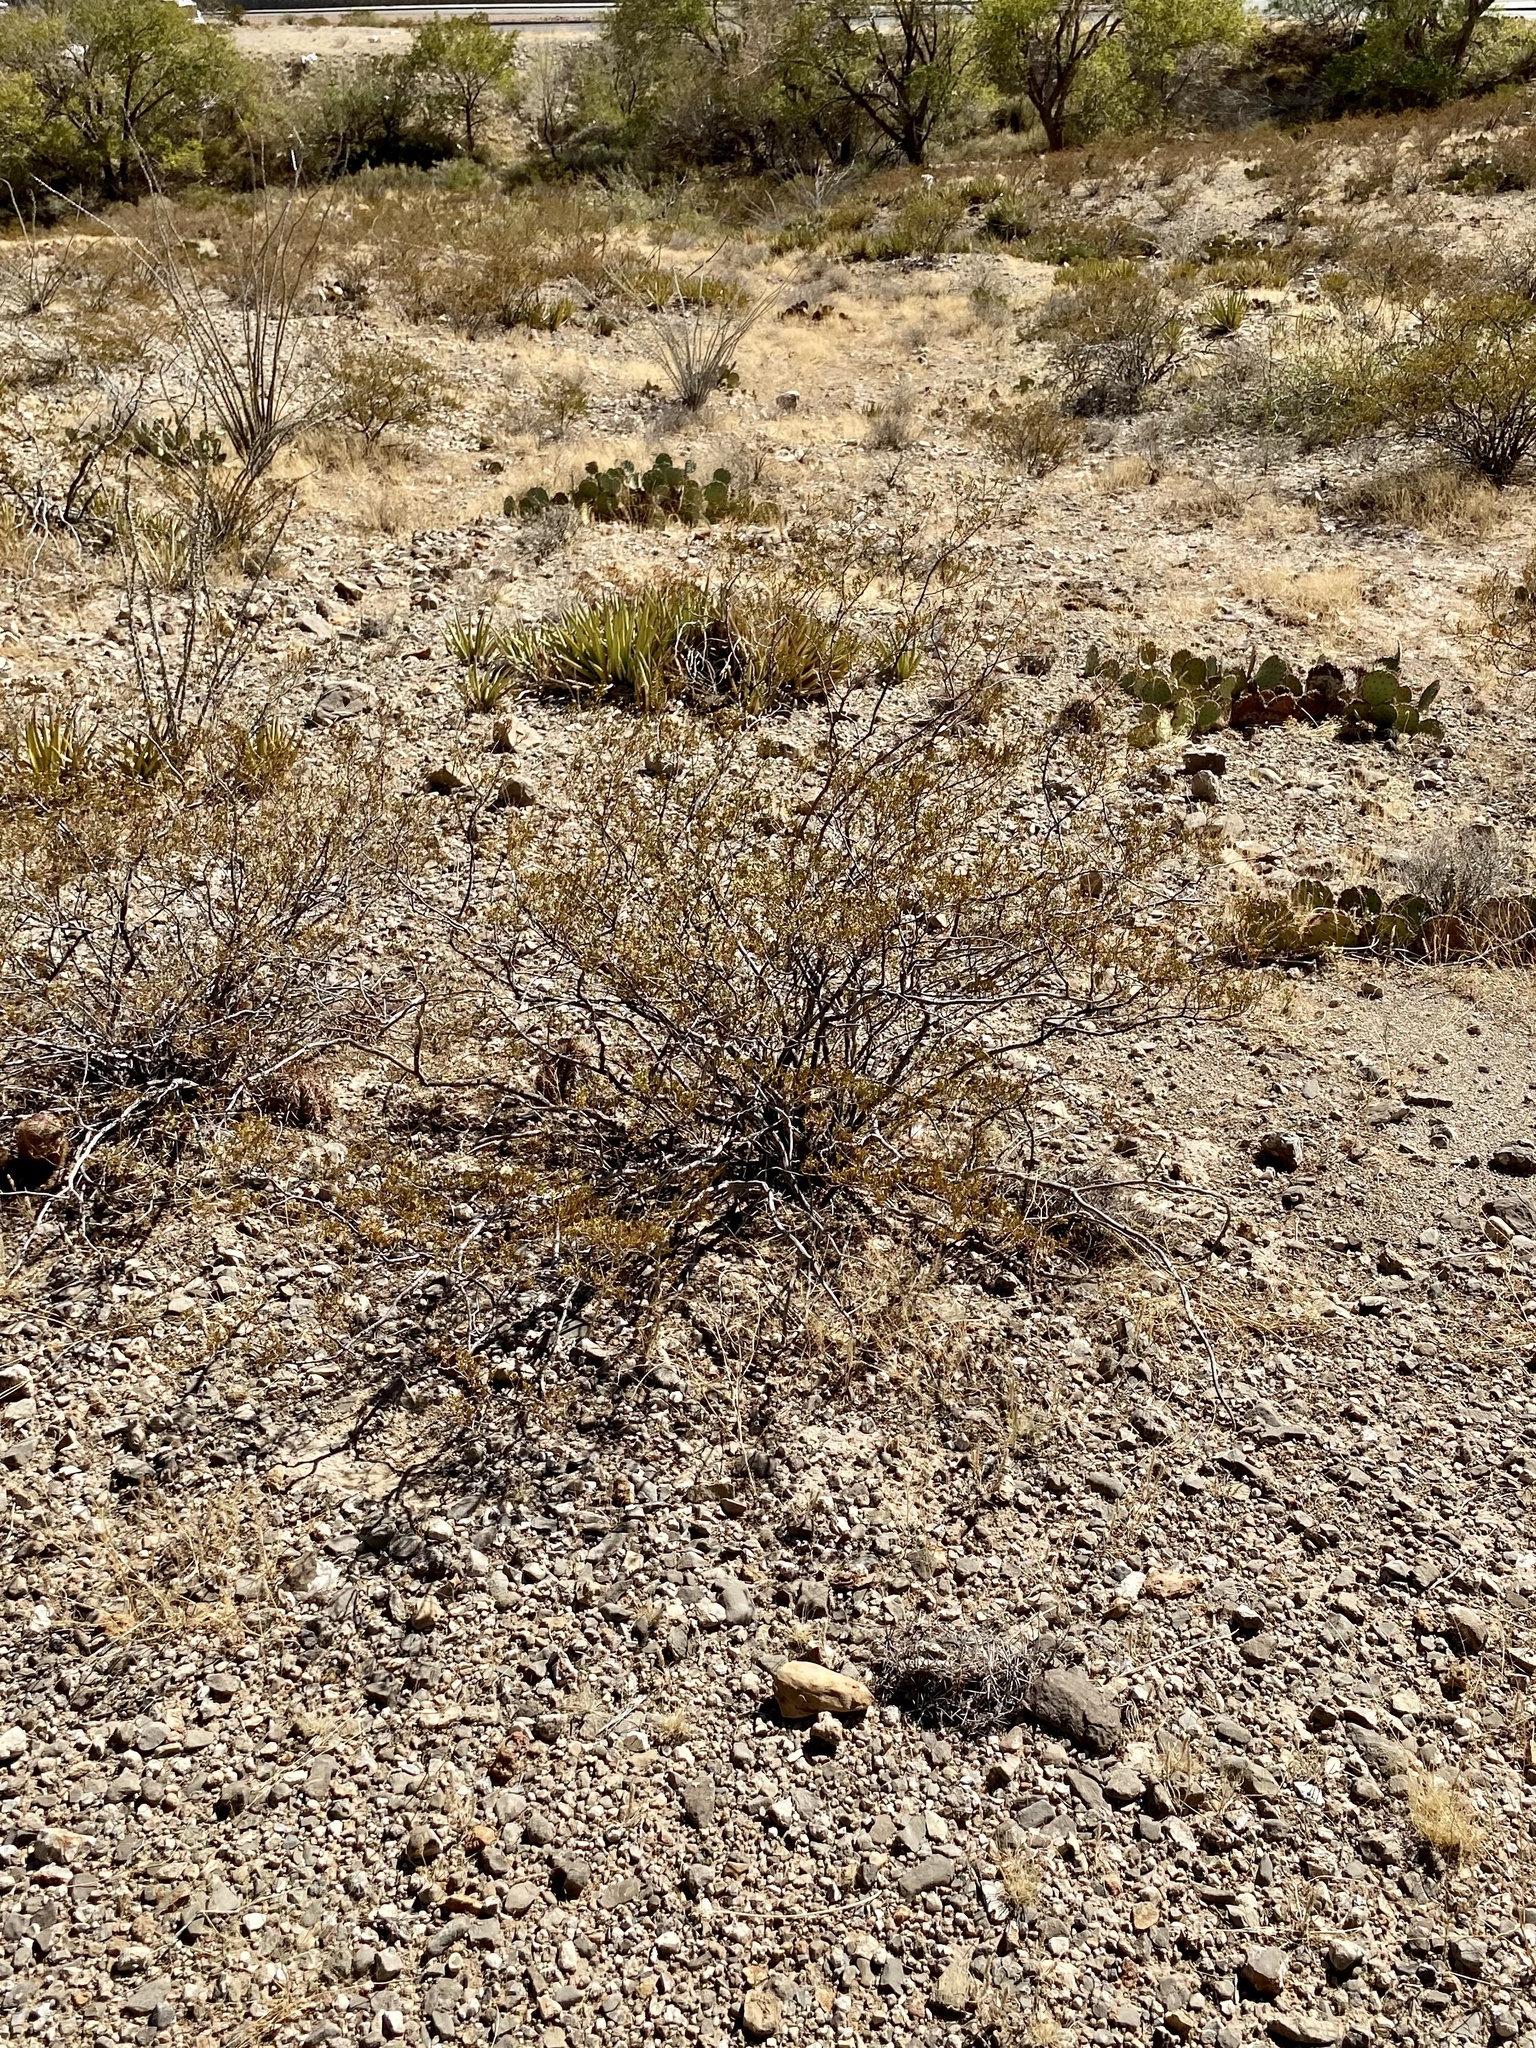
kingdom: Plantae
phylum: Tracheophyta
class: Magnoliopsida
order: Zygophyllales
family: Zygophyllaceae
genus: Larrea
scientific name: Larrea tridentata
